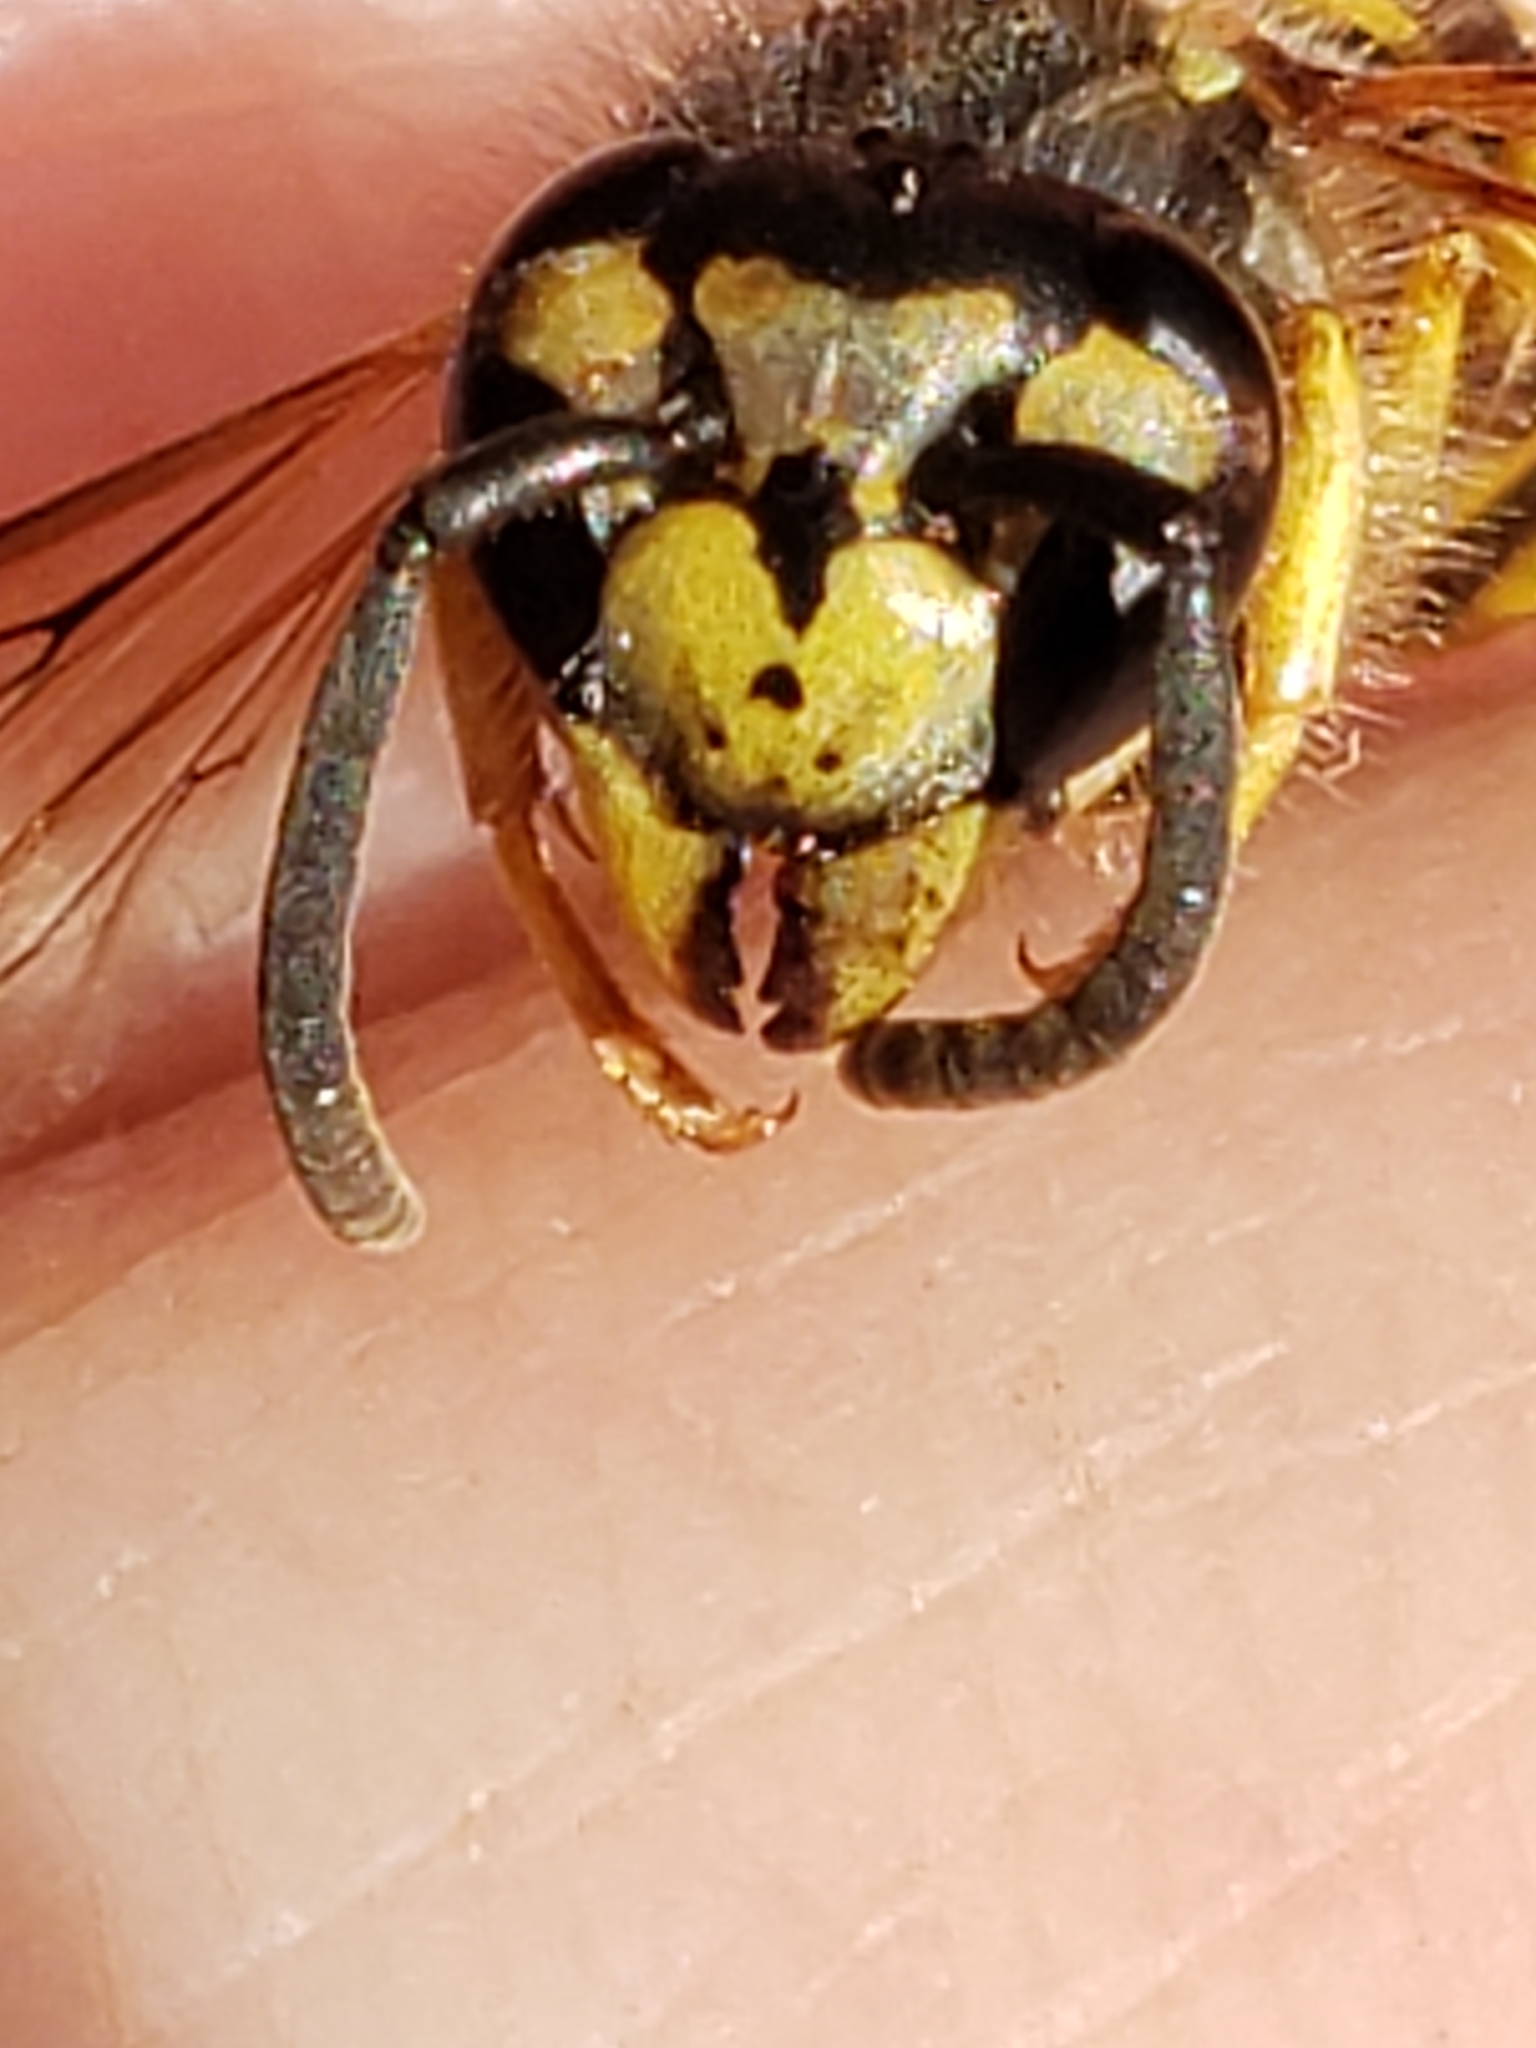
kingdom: Animalia
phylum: Arthropoda
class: Insecta
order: Hymenoptera
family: Vespidae
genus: Vespula
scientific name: Vespula maculifrons
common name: Eastern yellowjacket
